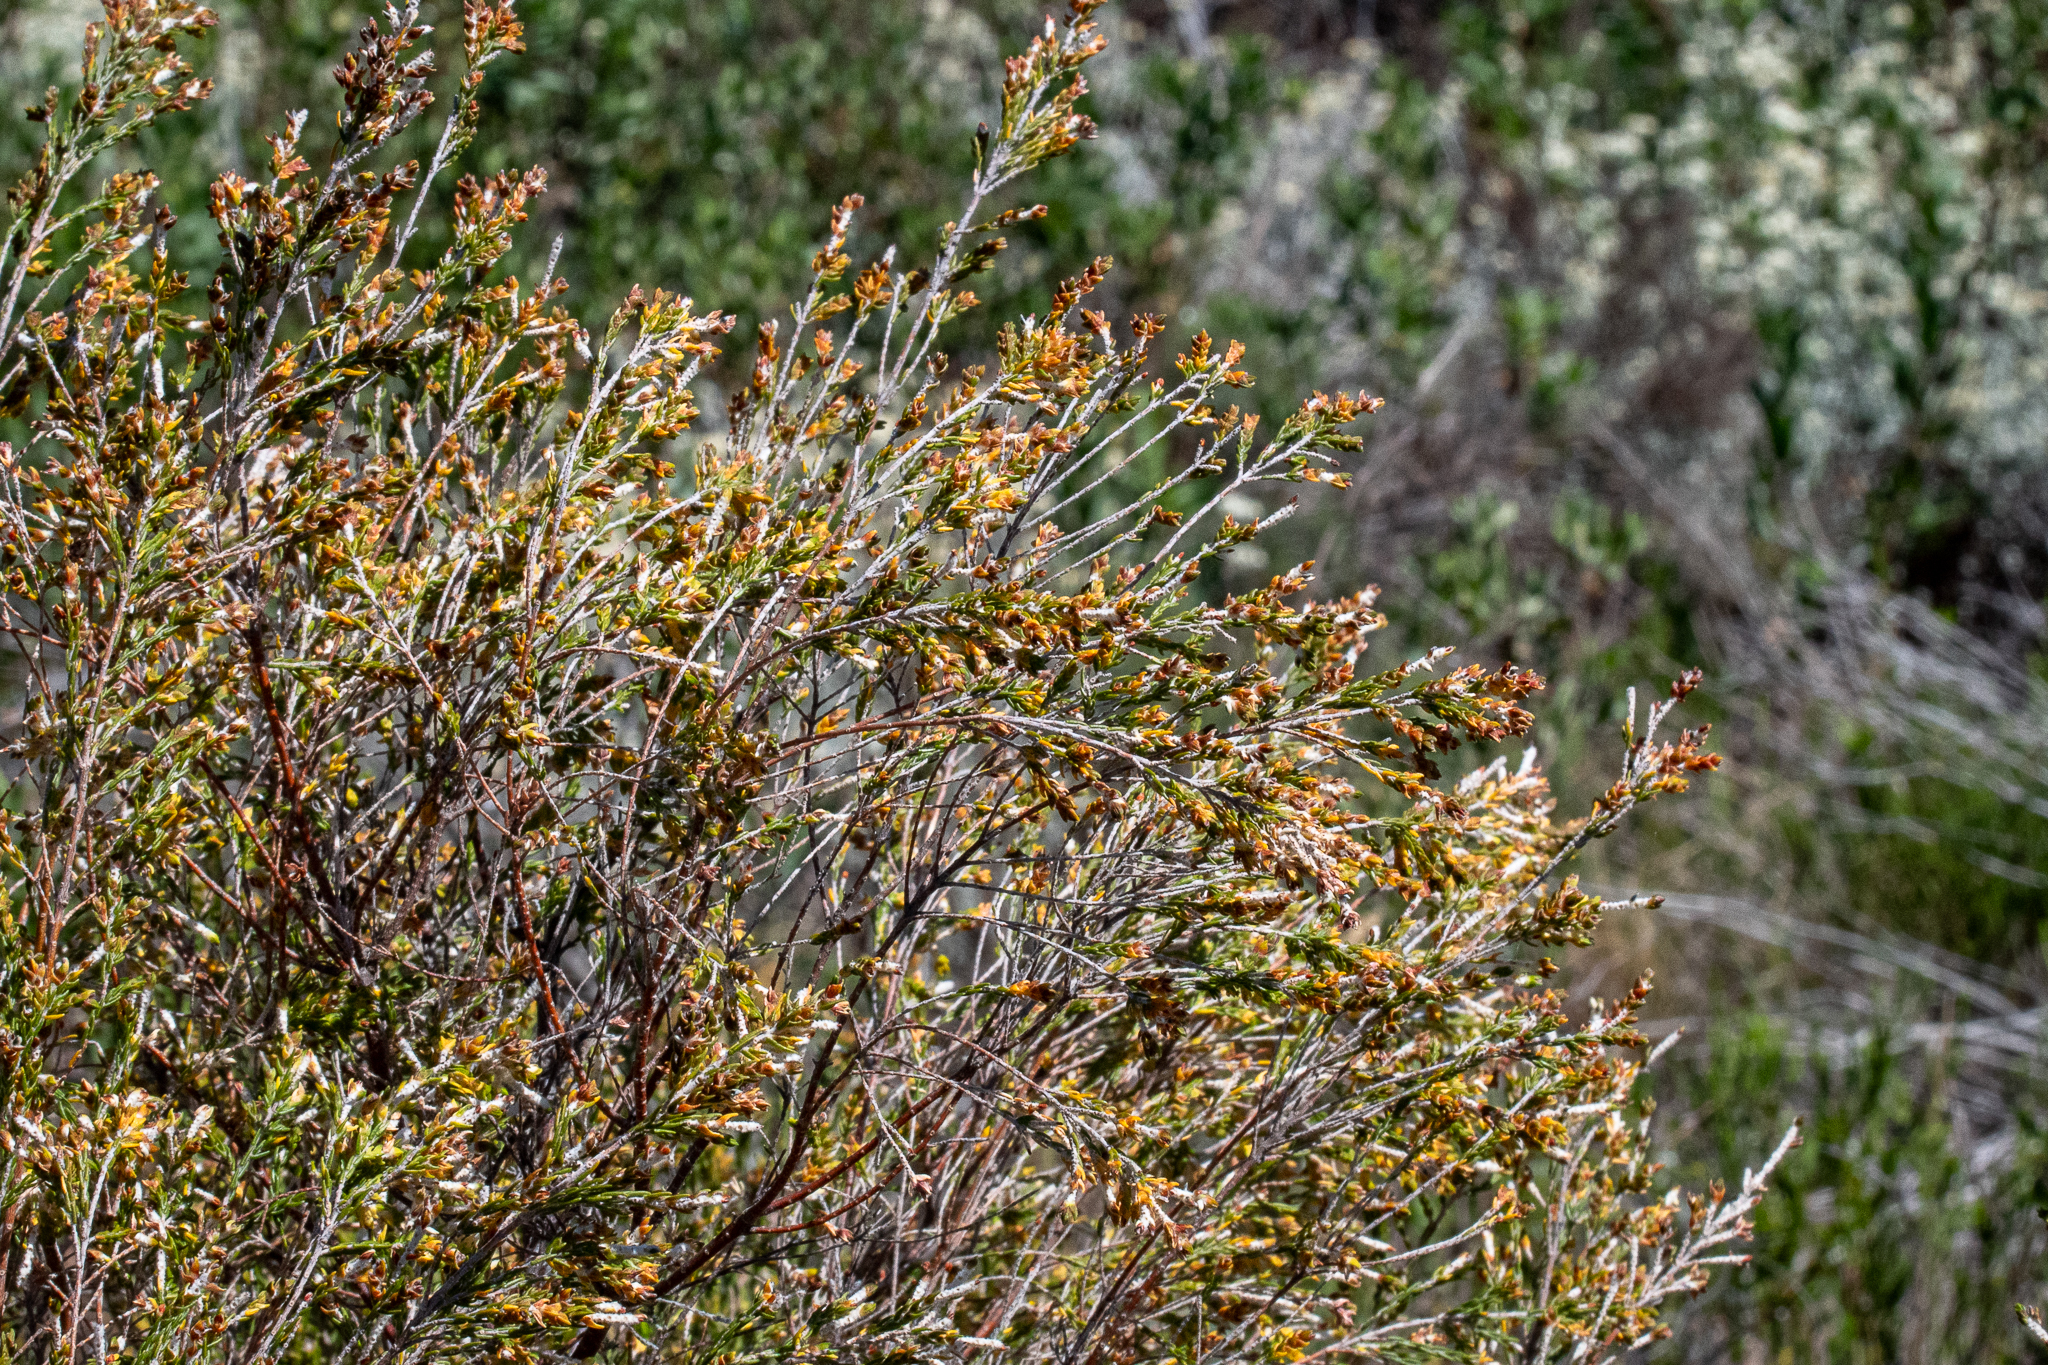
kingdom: Plantae
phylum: Tracheophyta
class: Magnoliopsida
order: Malvales
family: Thymelaeaceae
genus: Passerina
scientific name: Passerina corymbosa
